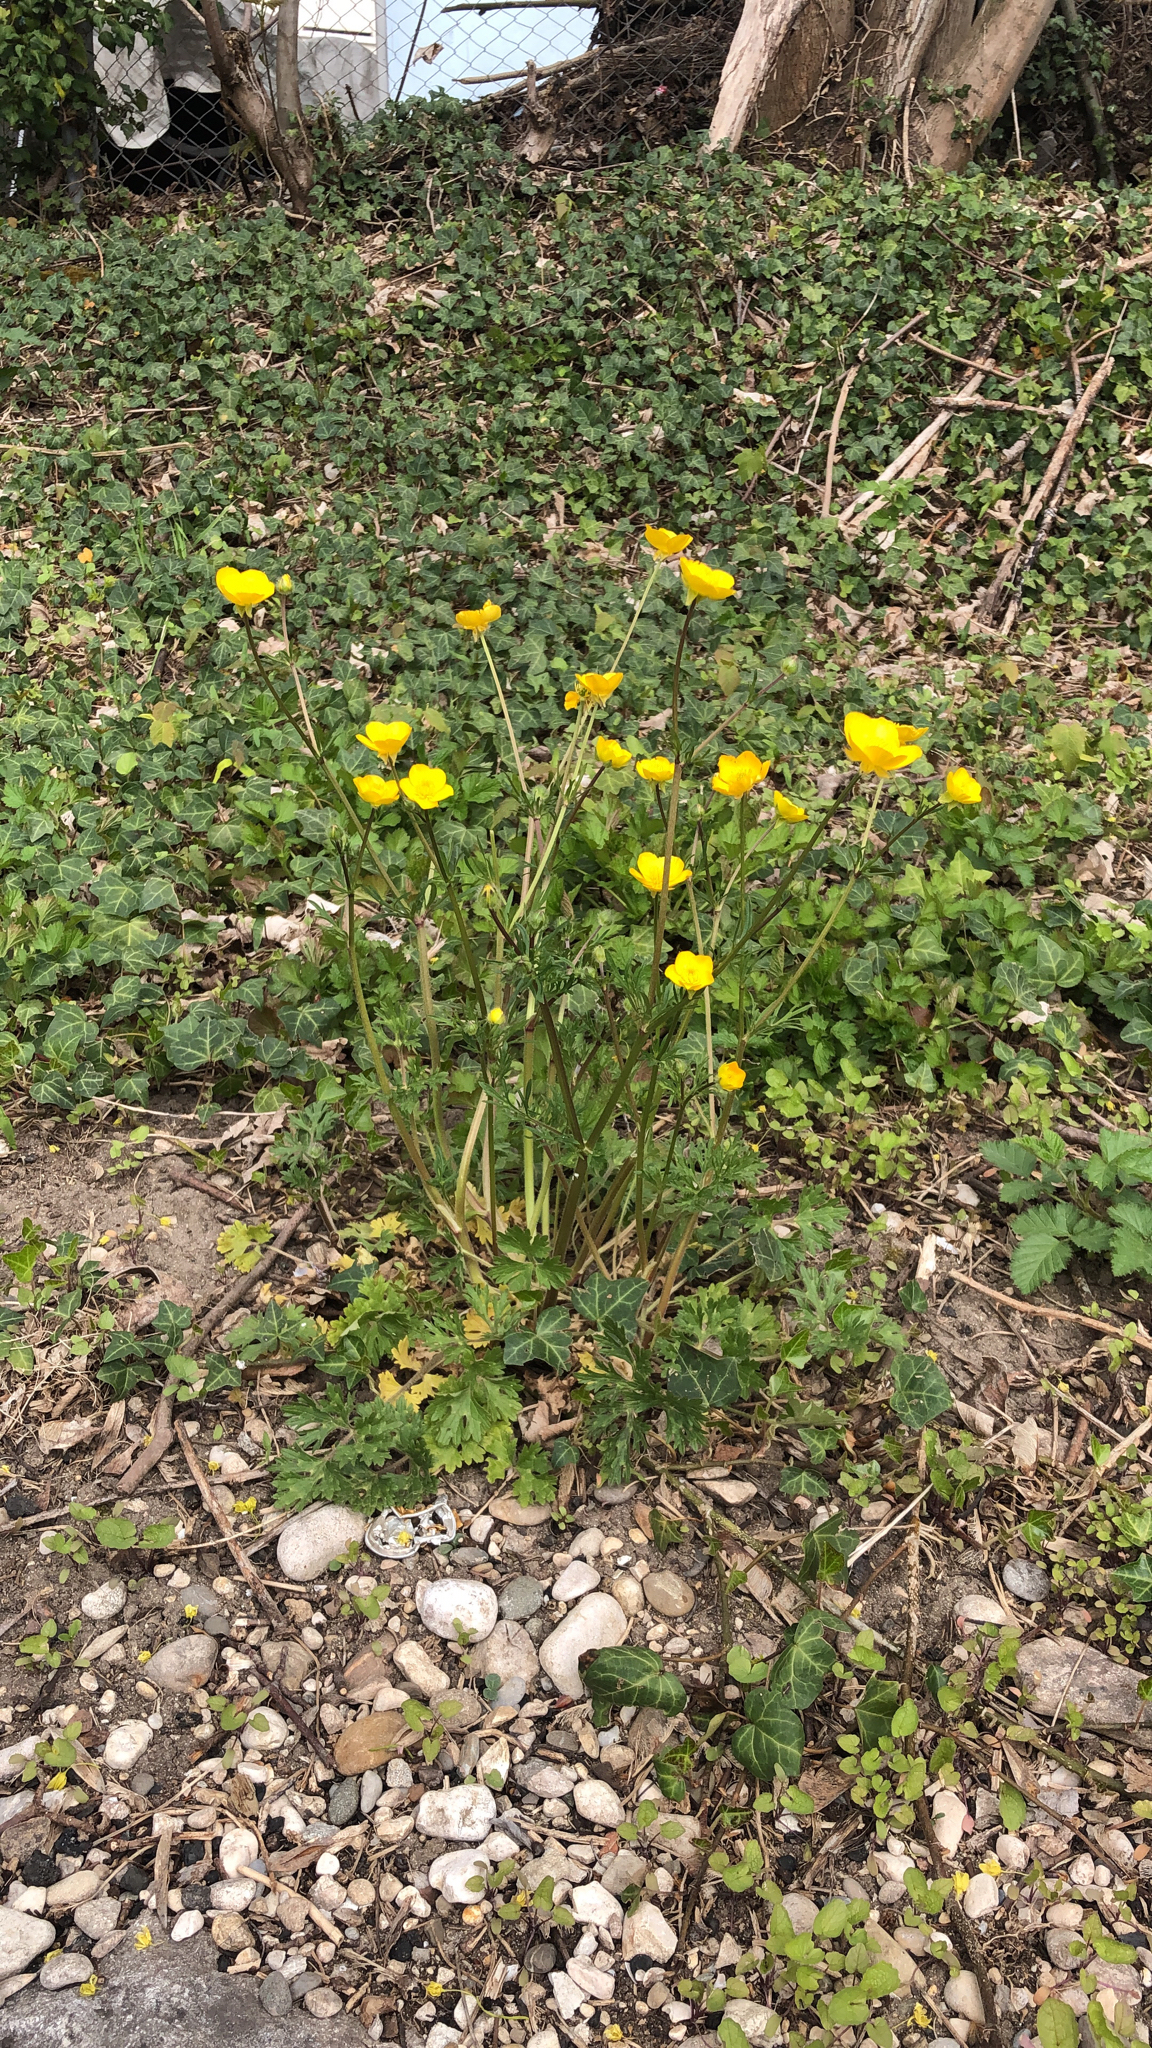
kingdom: Plantae
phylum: Tracheophyta
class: Magnoliopsida
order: Ranunculales
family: Ranunculaceae
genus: Ranunculus
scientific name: Ranunculus bulbosus
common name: Bulbous buttercup
